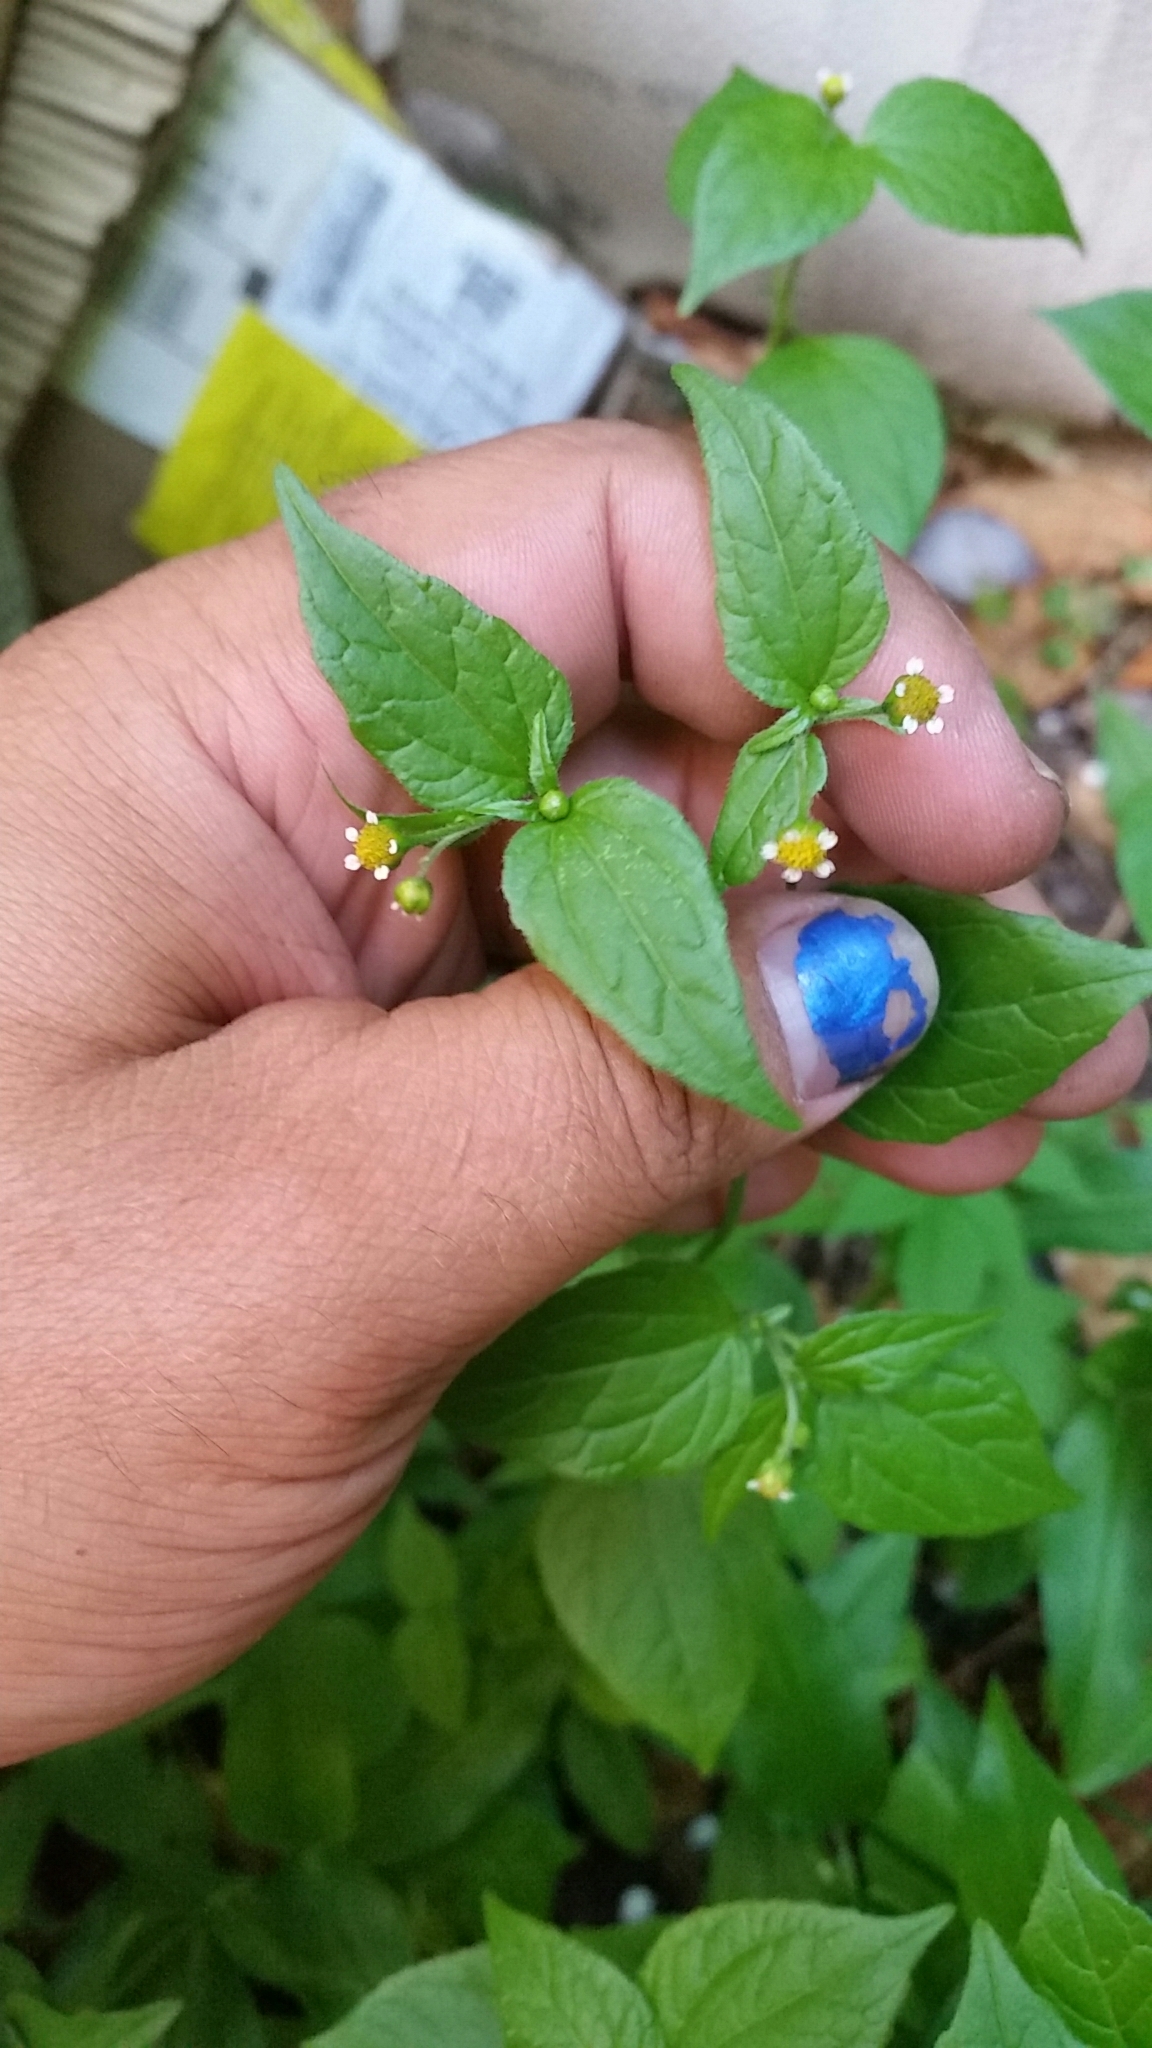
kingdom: Plantae
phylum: Tracheophyta
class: Magnoliopsida
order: Asterales
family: Asteraceae
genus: Galinsoga
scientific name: Galinsoga quadriradiata
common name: Shaggy soldier
